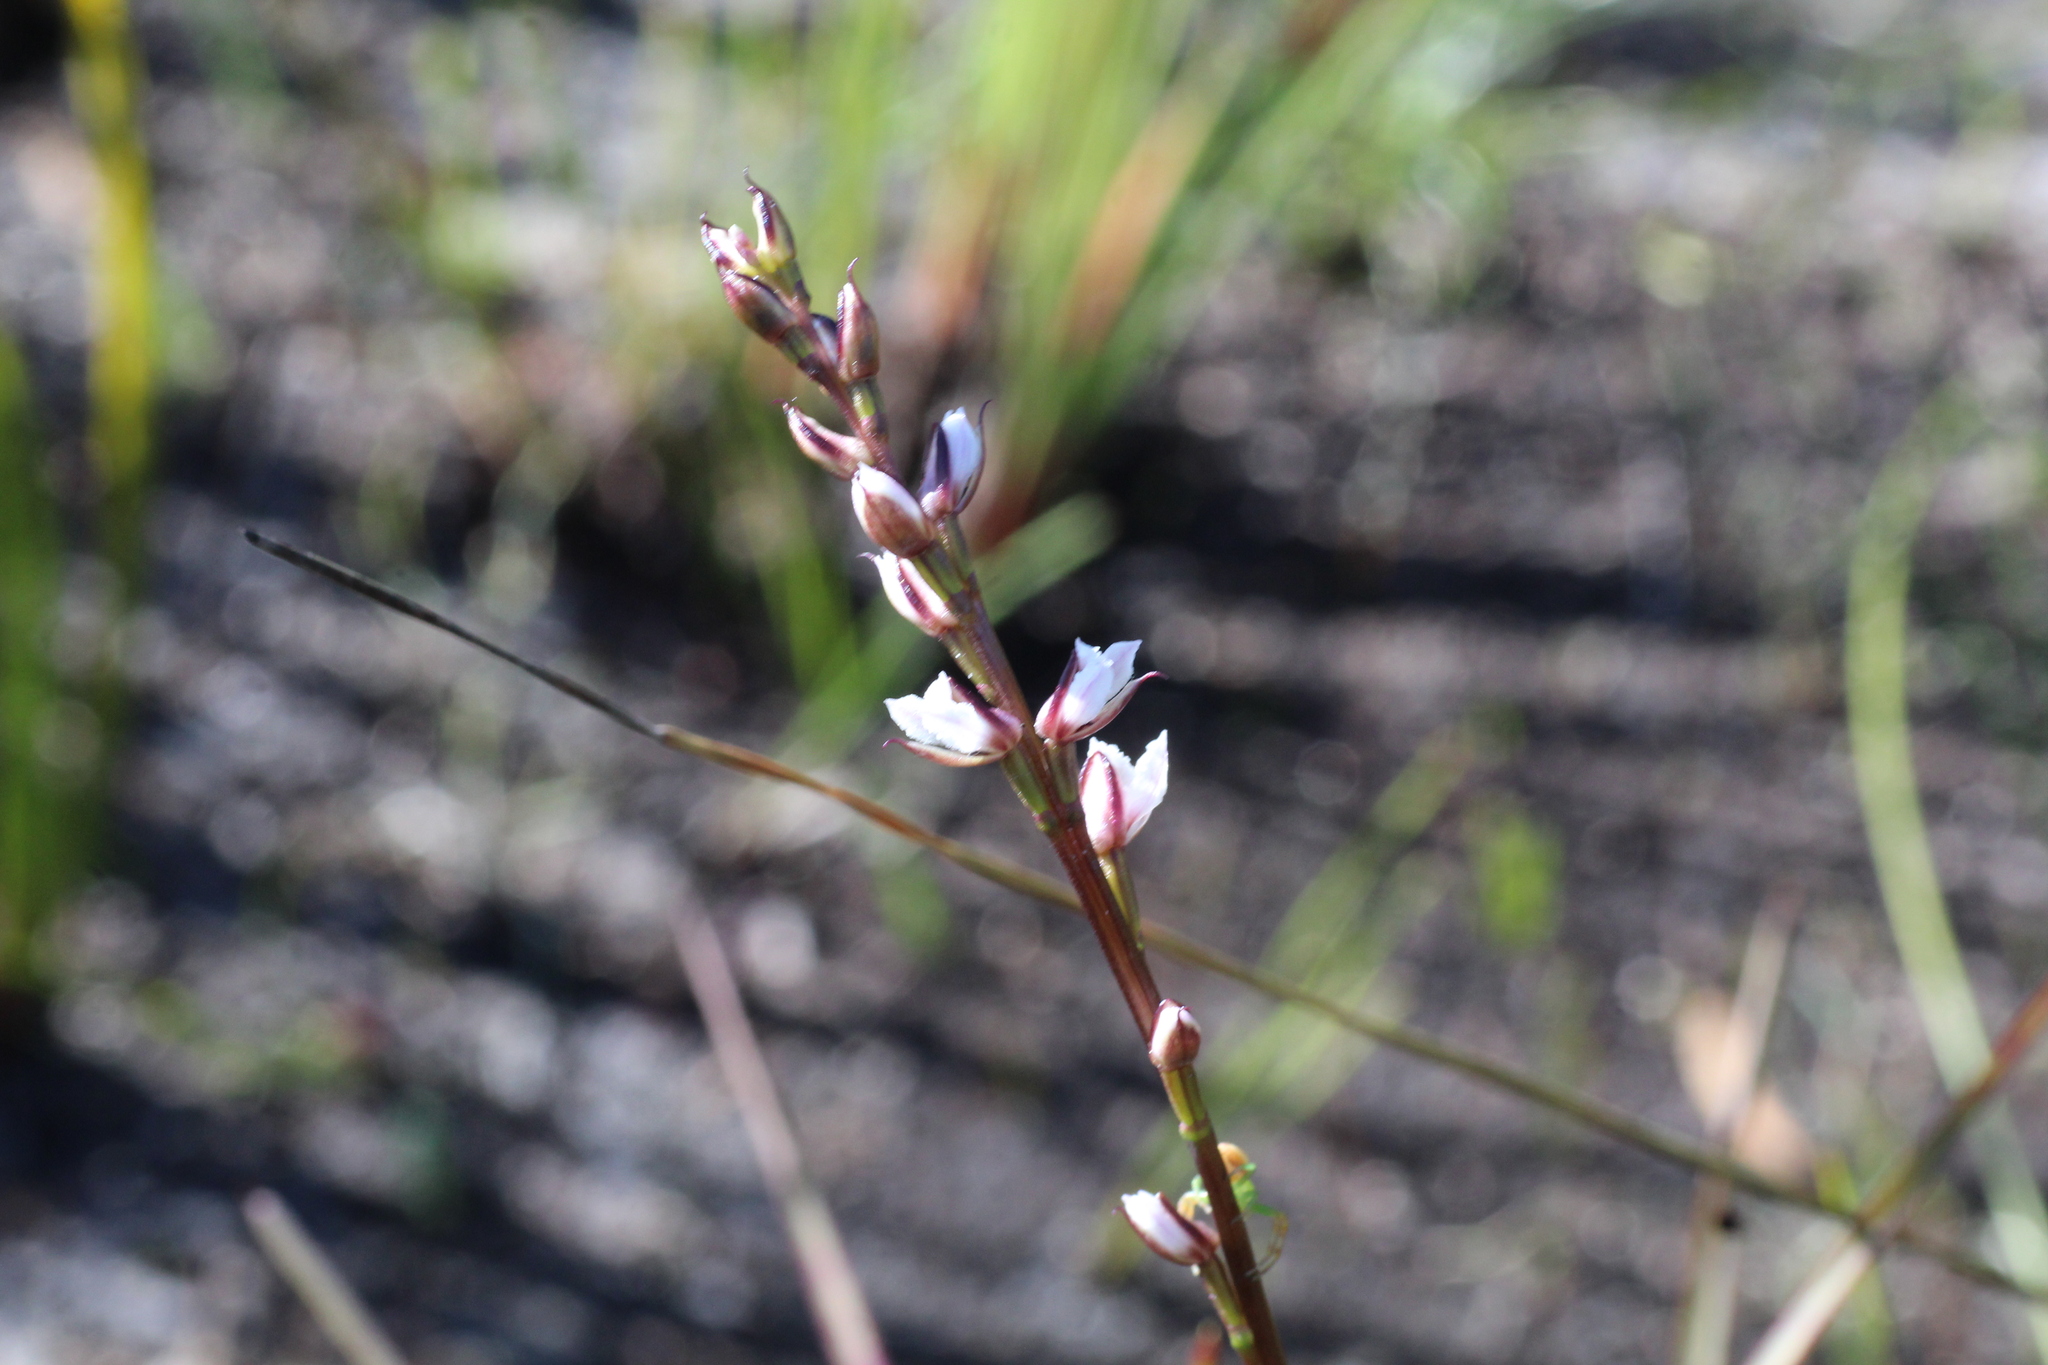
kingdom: Plantae
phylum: Tracheophyta
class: Liliopsida
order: Asparagales
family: Orchidaceae
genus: Prasophyllum
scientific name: Prasophyllum hians
